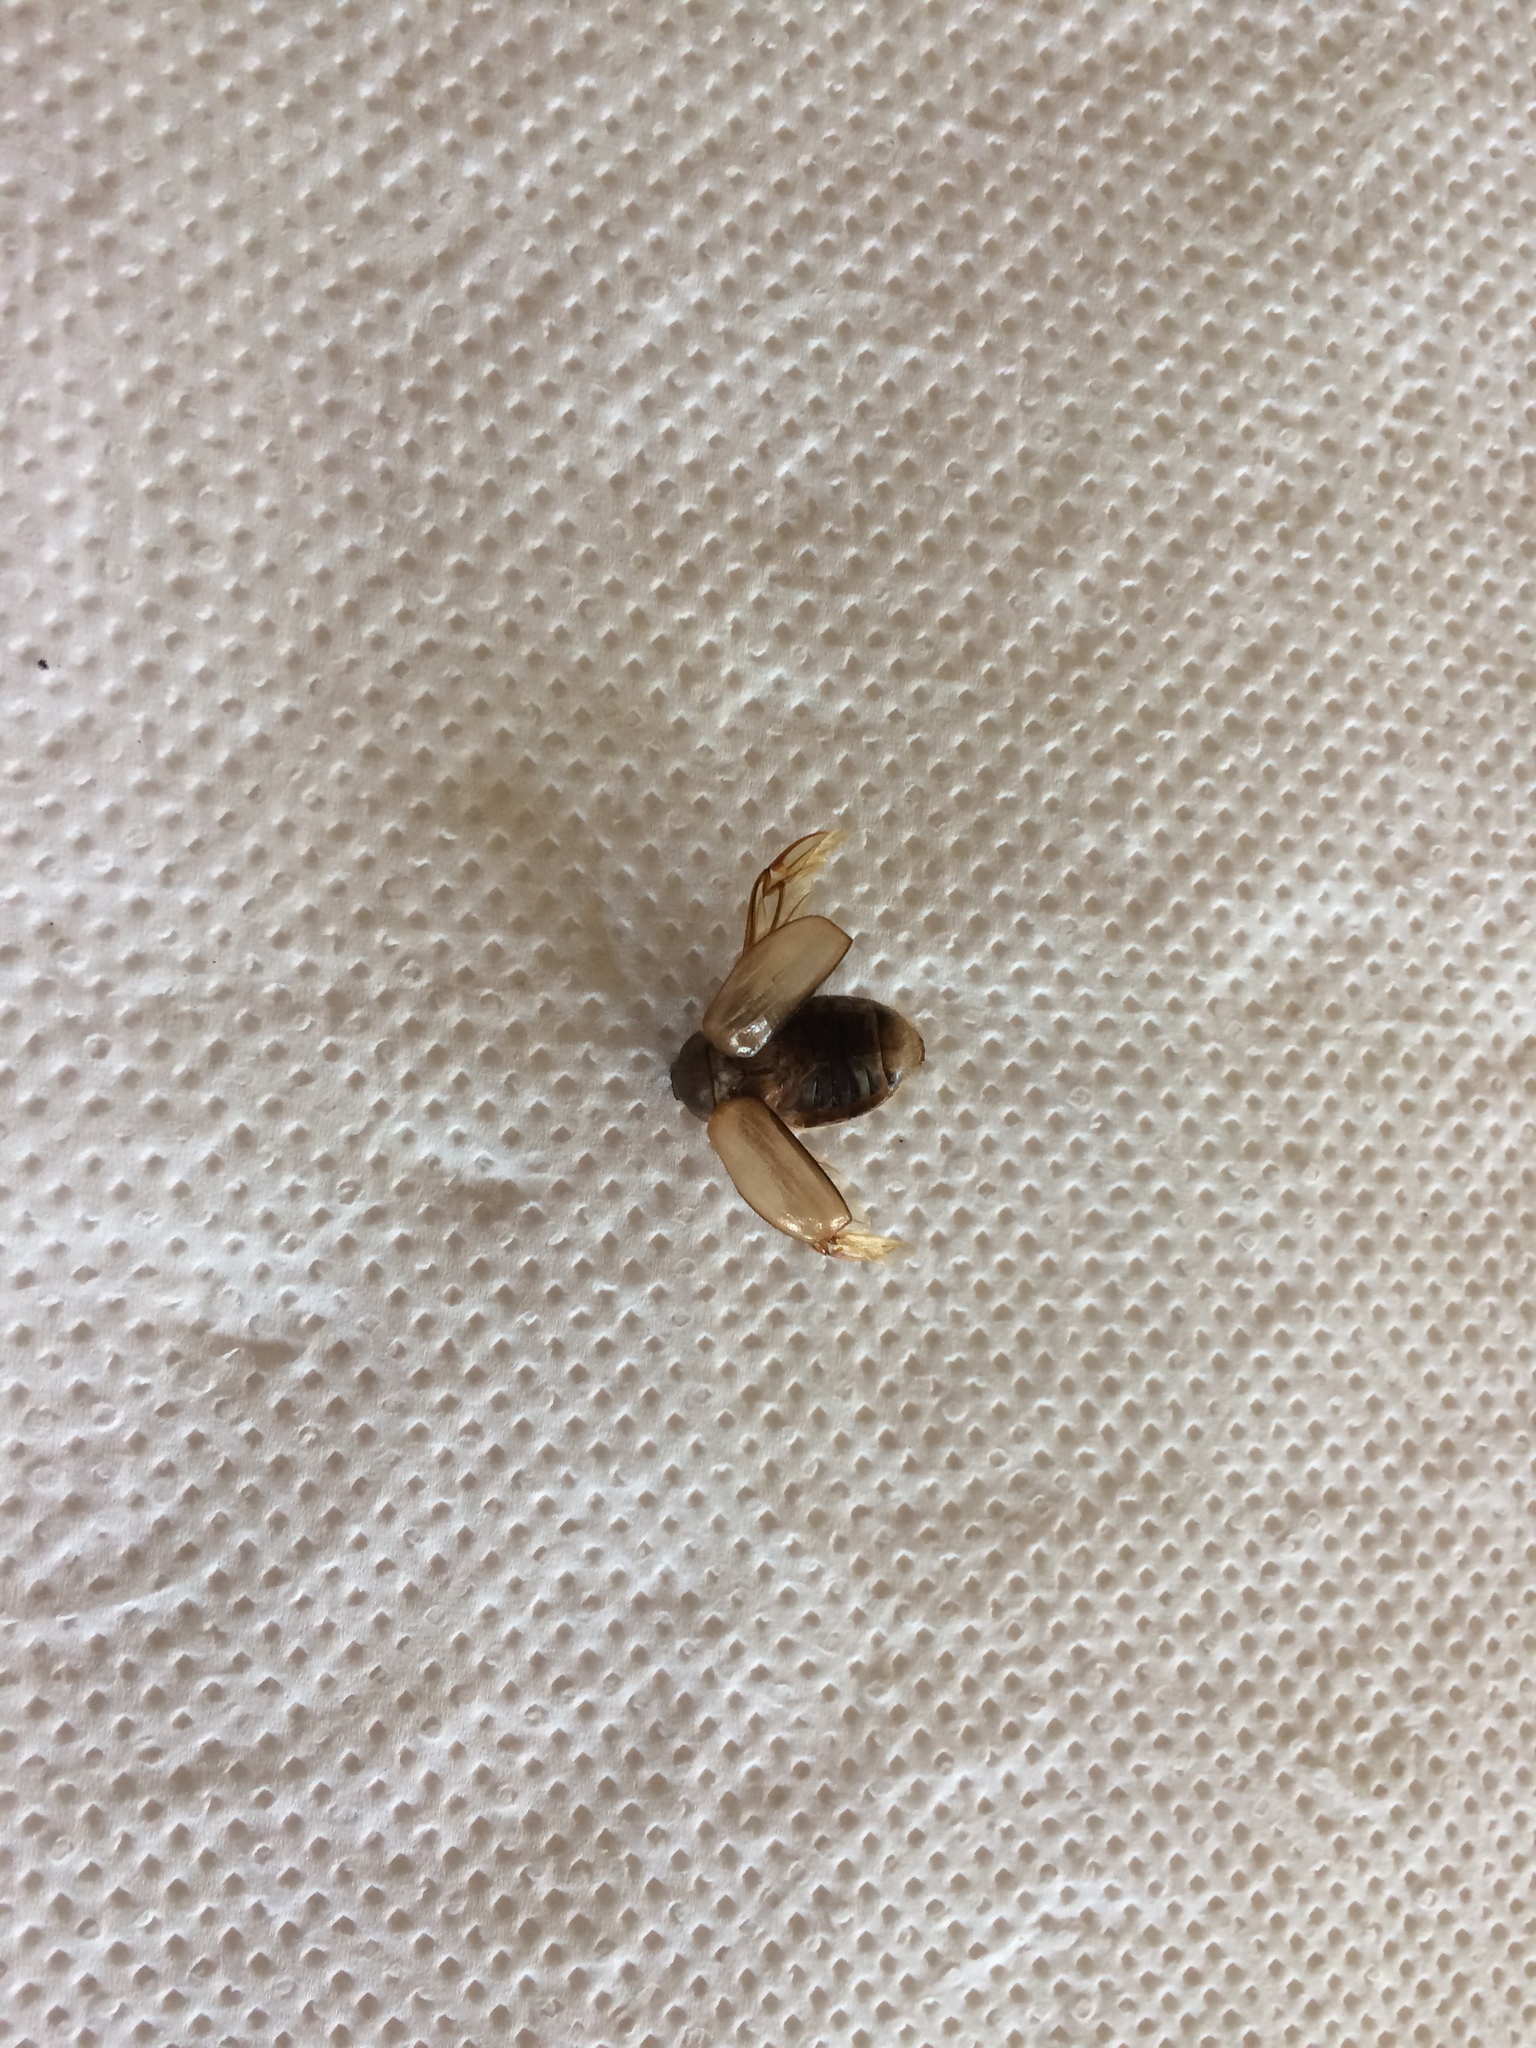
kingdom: Animalia
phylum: Arthropoda
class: Insecta
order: Coleoptera
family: Scarabaeidae
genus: Amphimallon
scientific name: Amphimallon solstitiale
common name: Summer chafer
